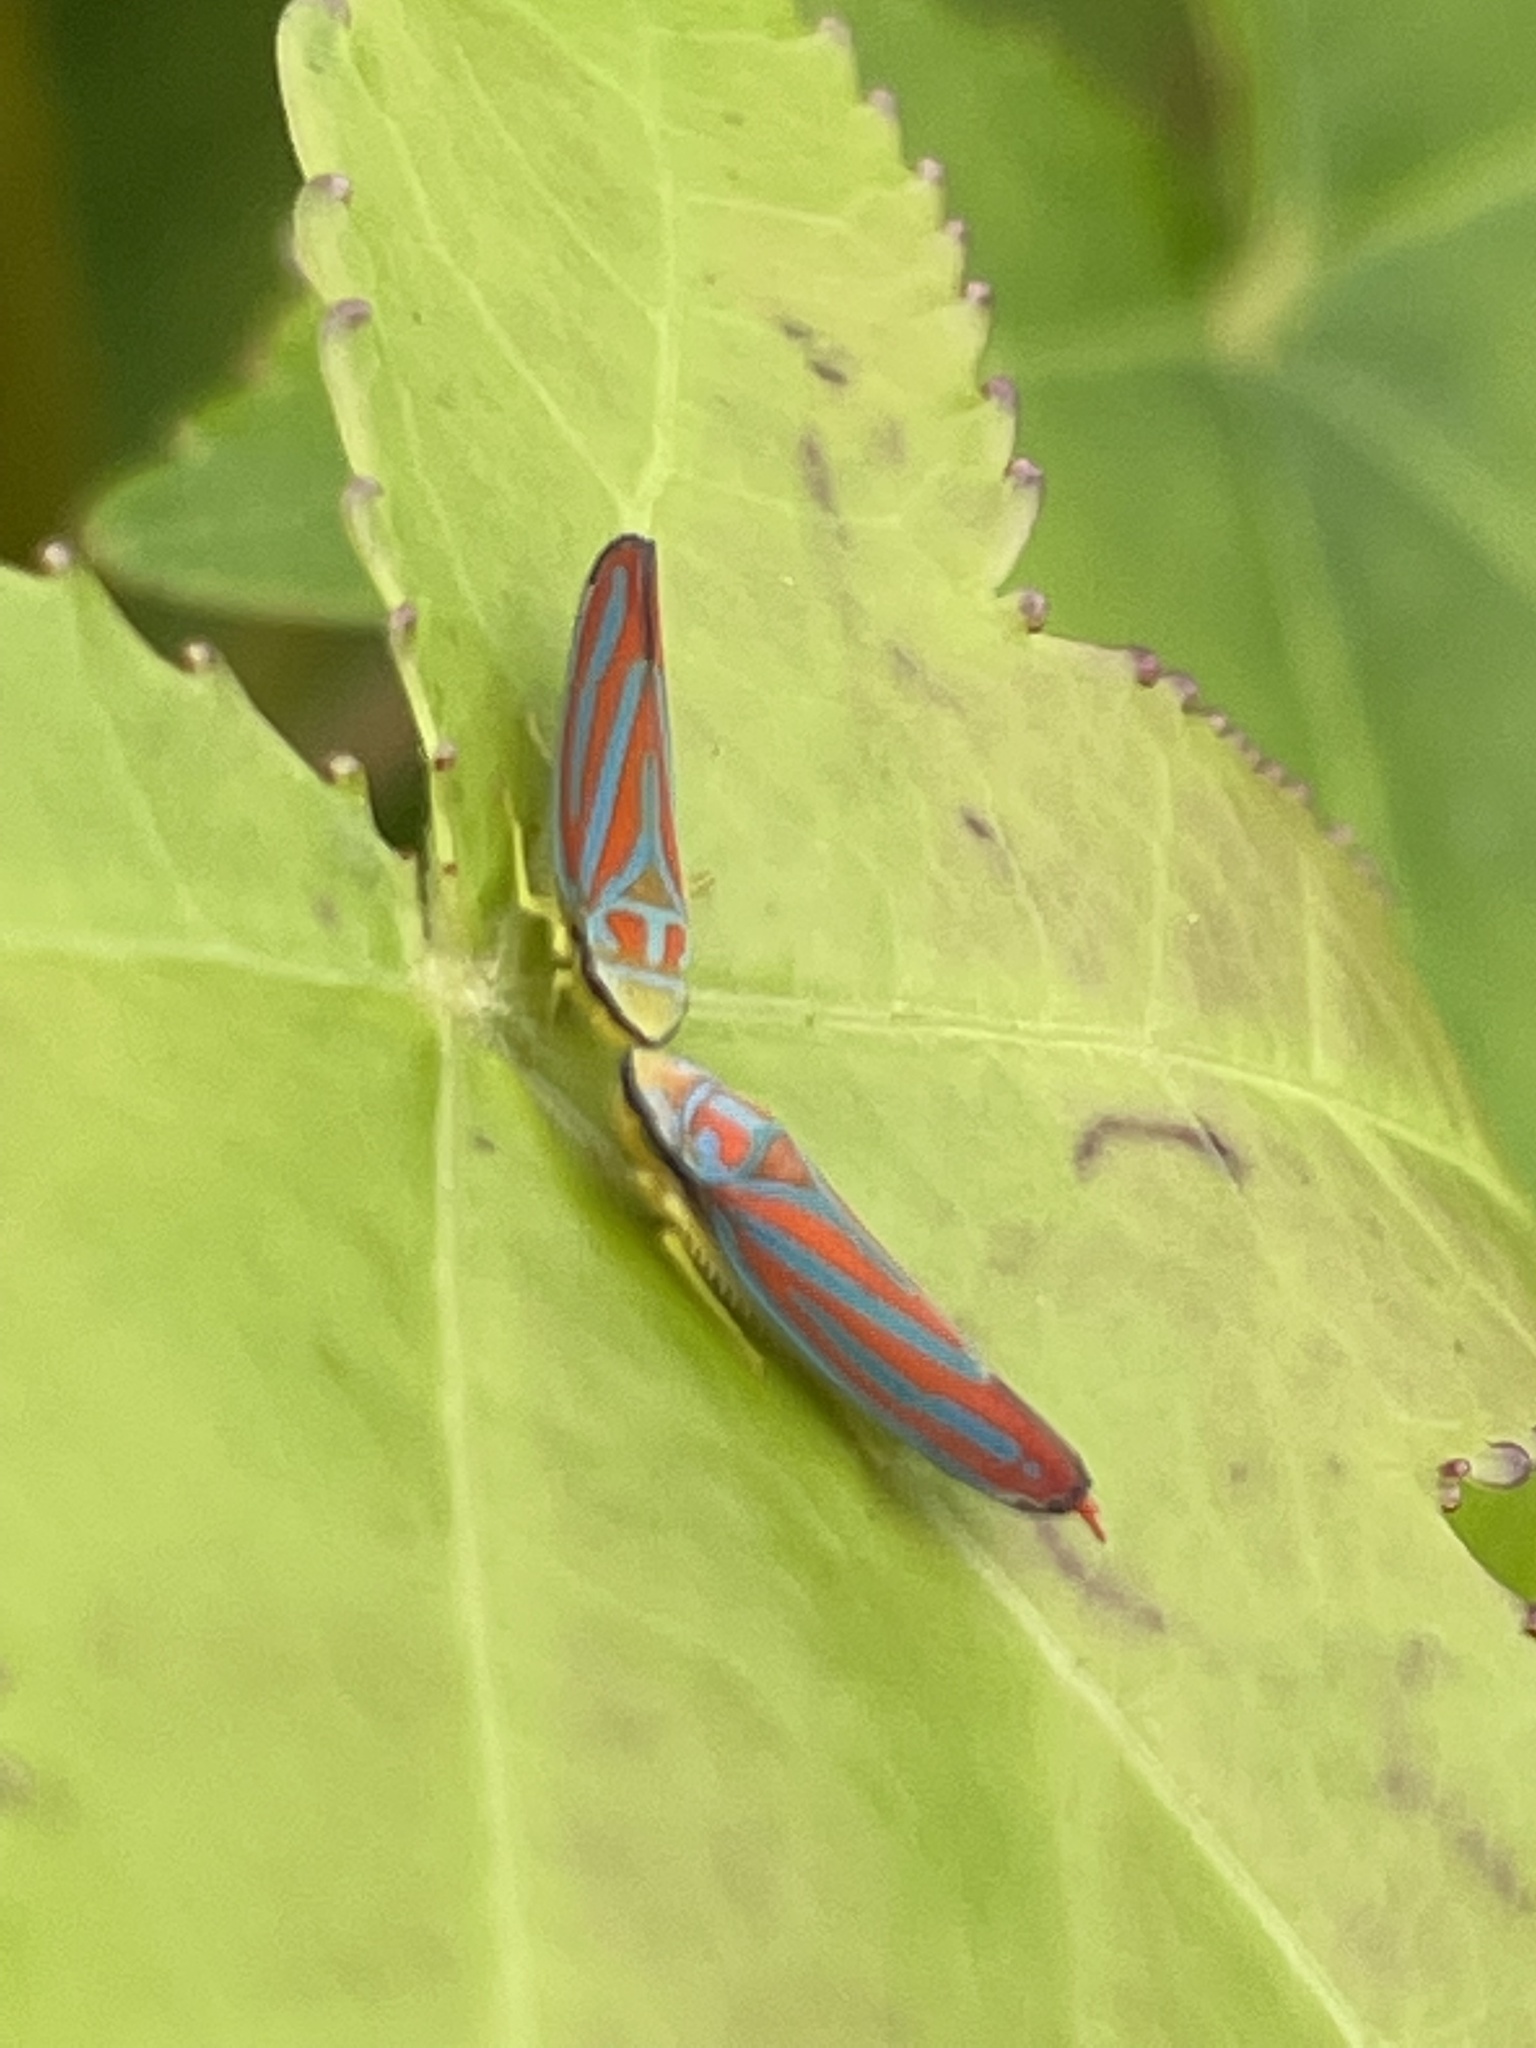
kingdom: Animalia
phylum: Arthropoda
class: Insecta
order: Hemiptera
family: Cicadellidae
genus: Graphocephala
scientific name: Graphocephala coccinea
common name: Candy-striped leafhopper
